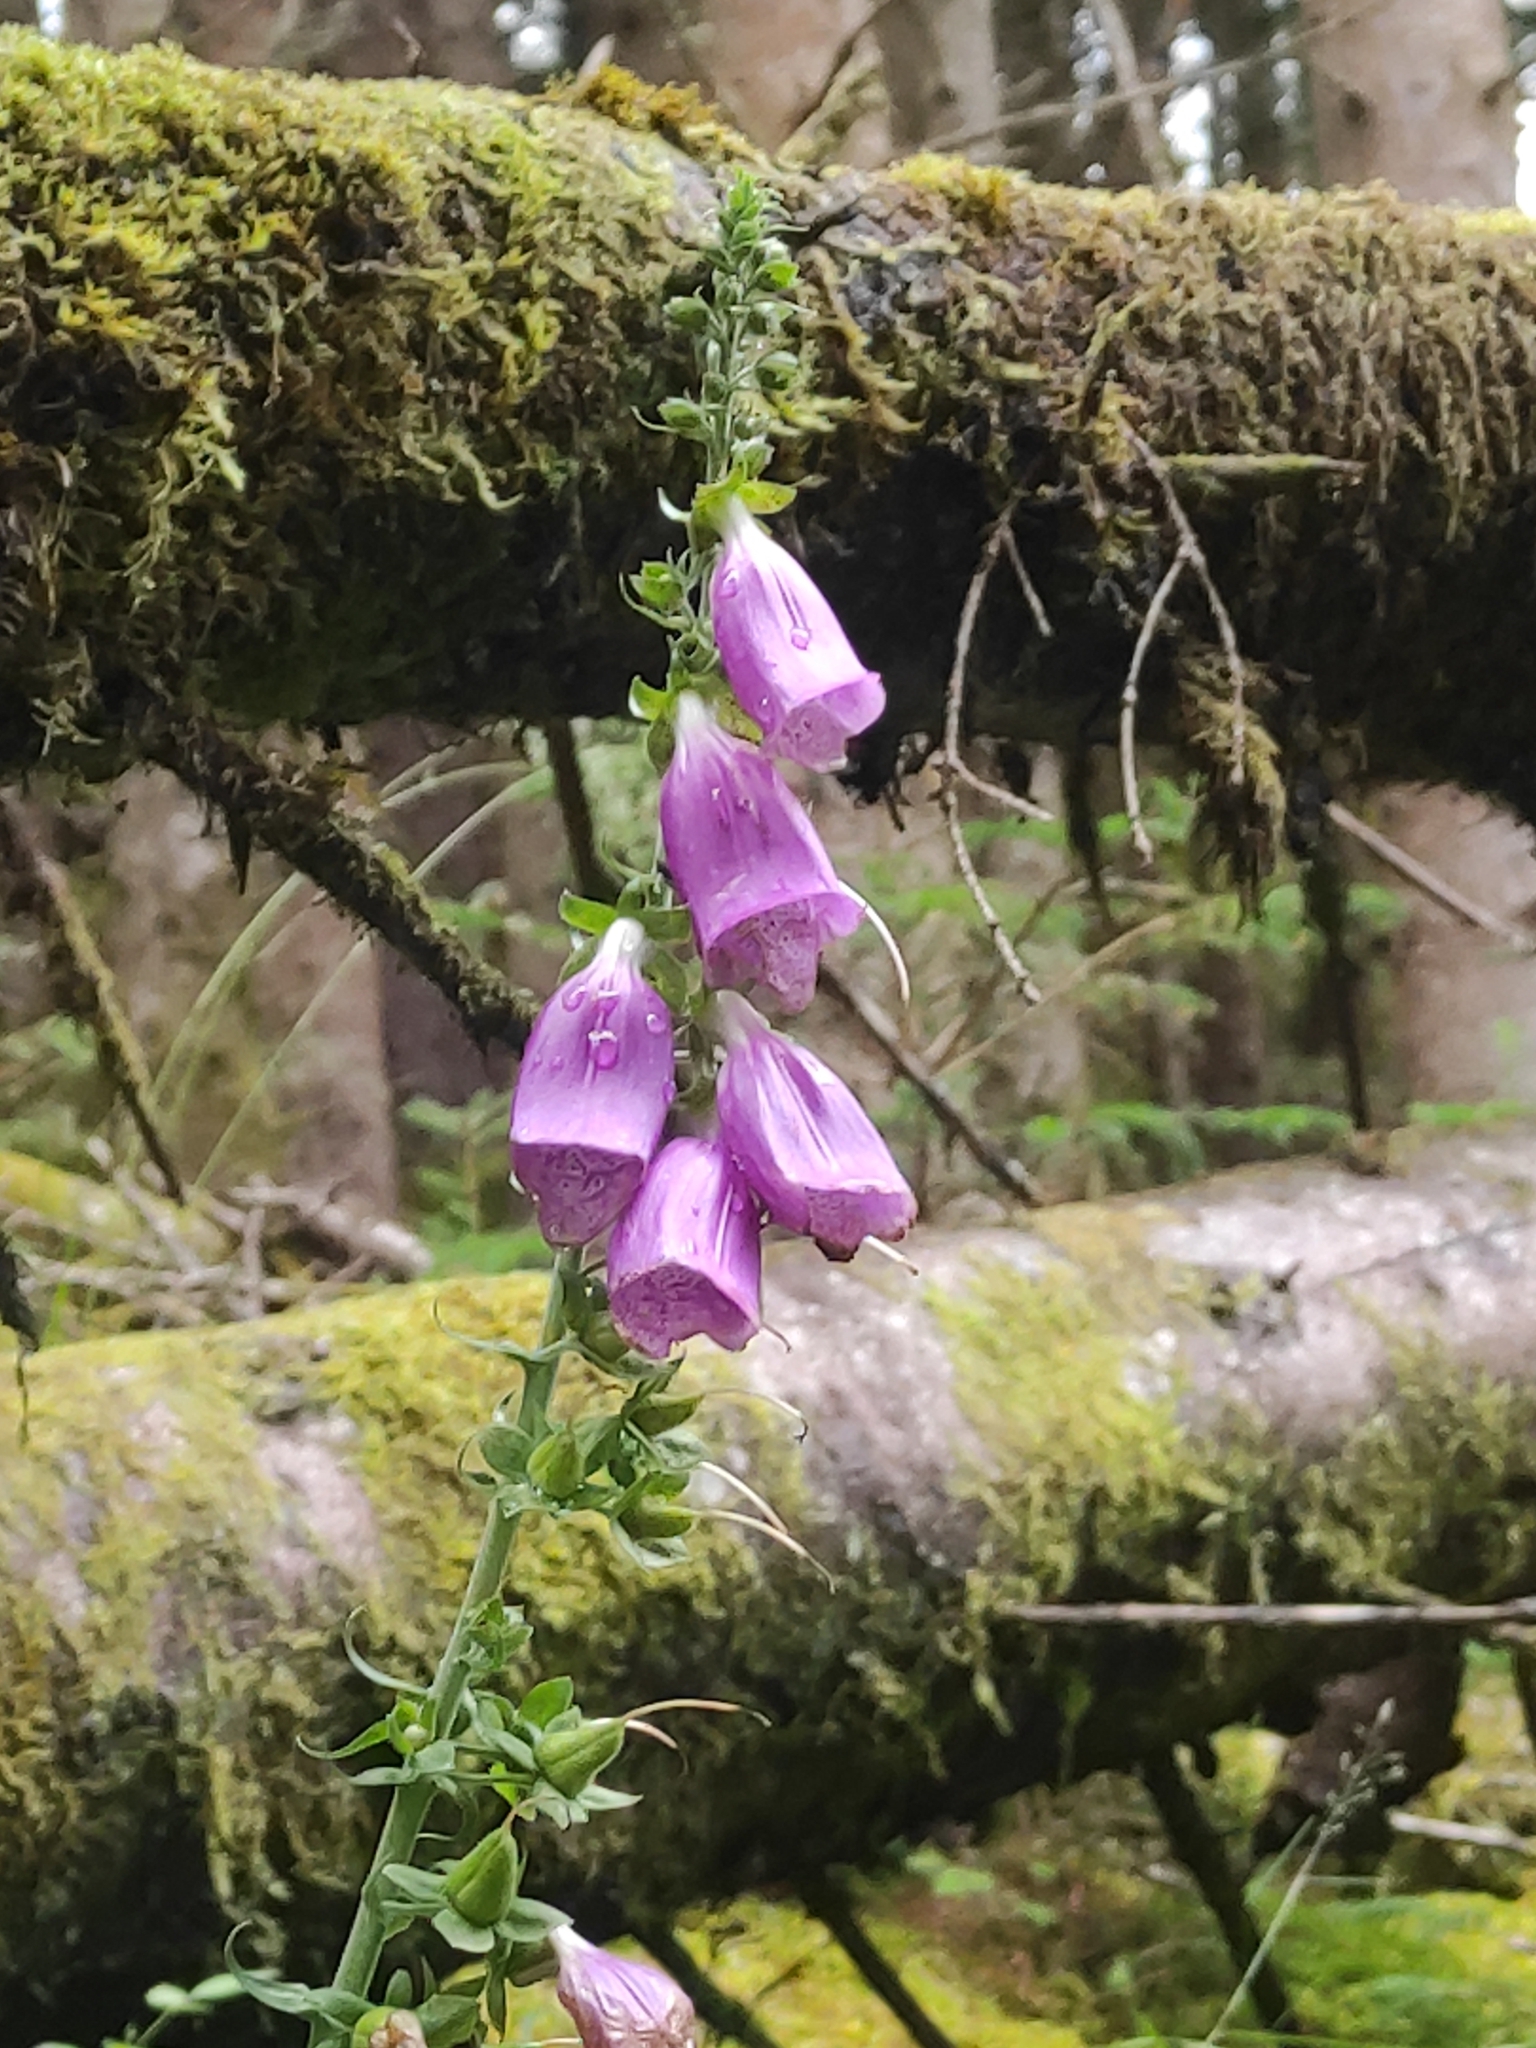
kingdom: Plantae
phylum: Tracheophyta
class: Magnoliopsida
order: Lamiales
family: Plantaginaceae
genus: Digitalis
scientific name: Digitalis purpurea
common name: Foxglove
